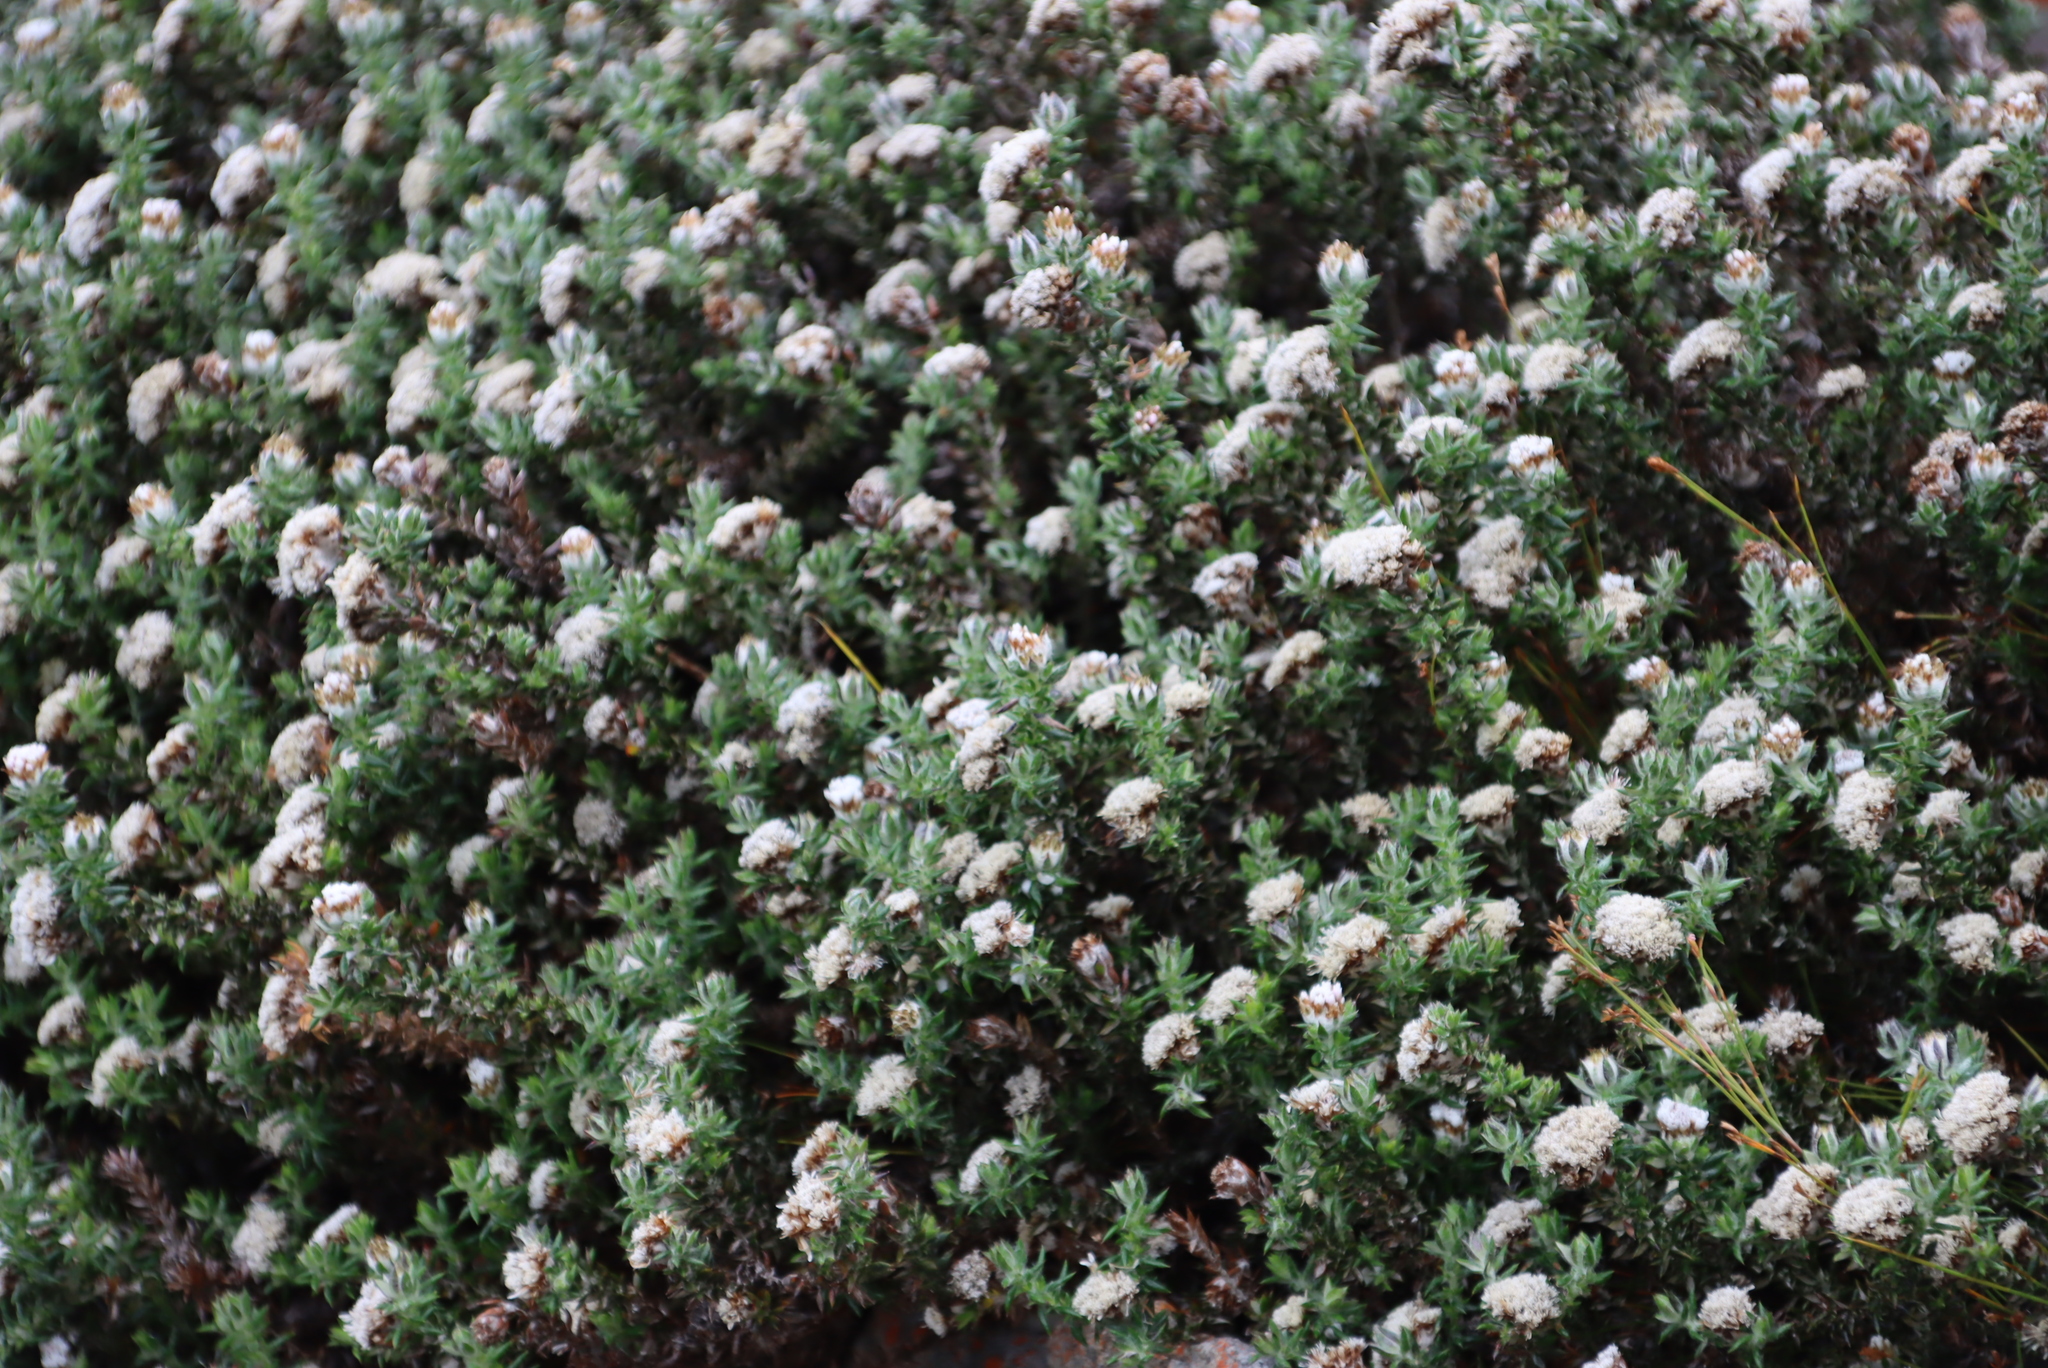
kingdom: Plantae
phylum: Tracheophyta
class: Magnoliopsida
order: Asterales
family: Asteraceae
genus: Metalasia
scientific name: Metalasia divergens
